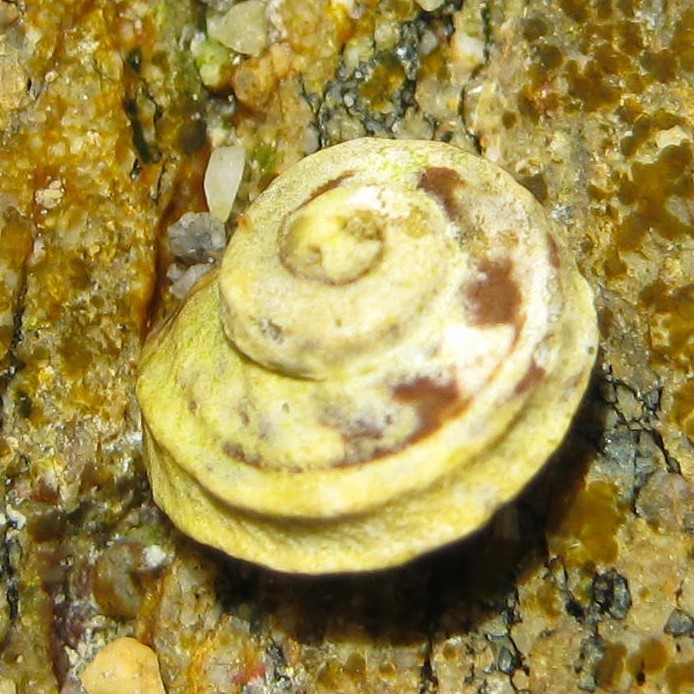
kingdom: Animalia
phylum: Mollusca
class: Gastropoda
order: Littorinimorpha
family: Littorinidae
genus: Risellopsis
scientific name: Risellopsis varia
